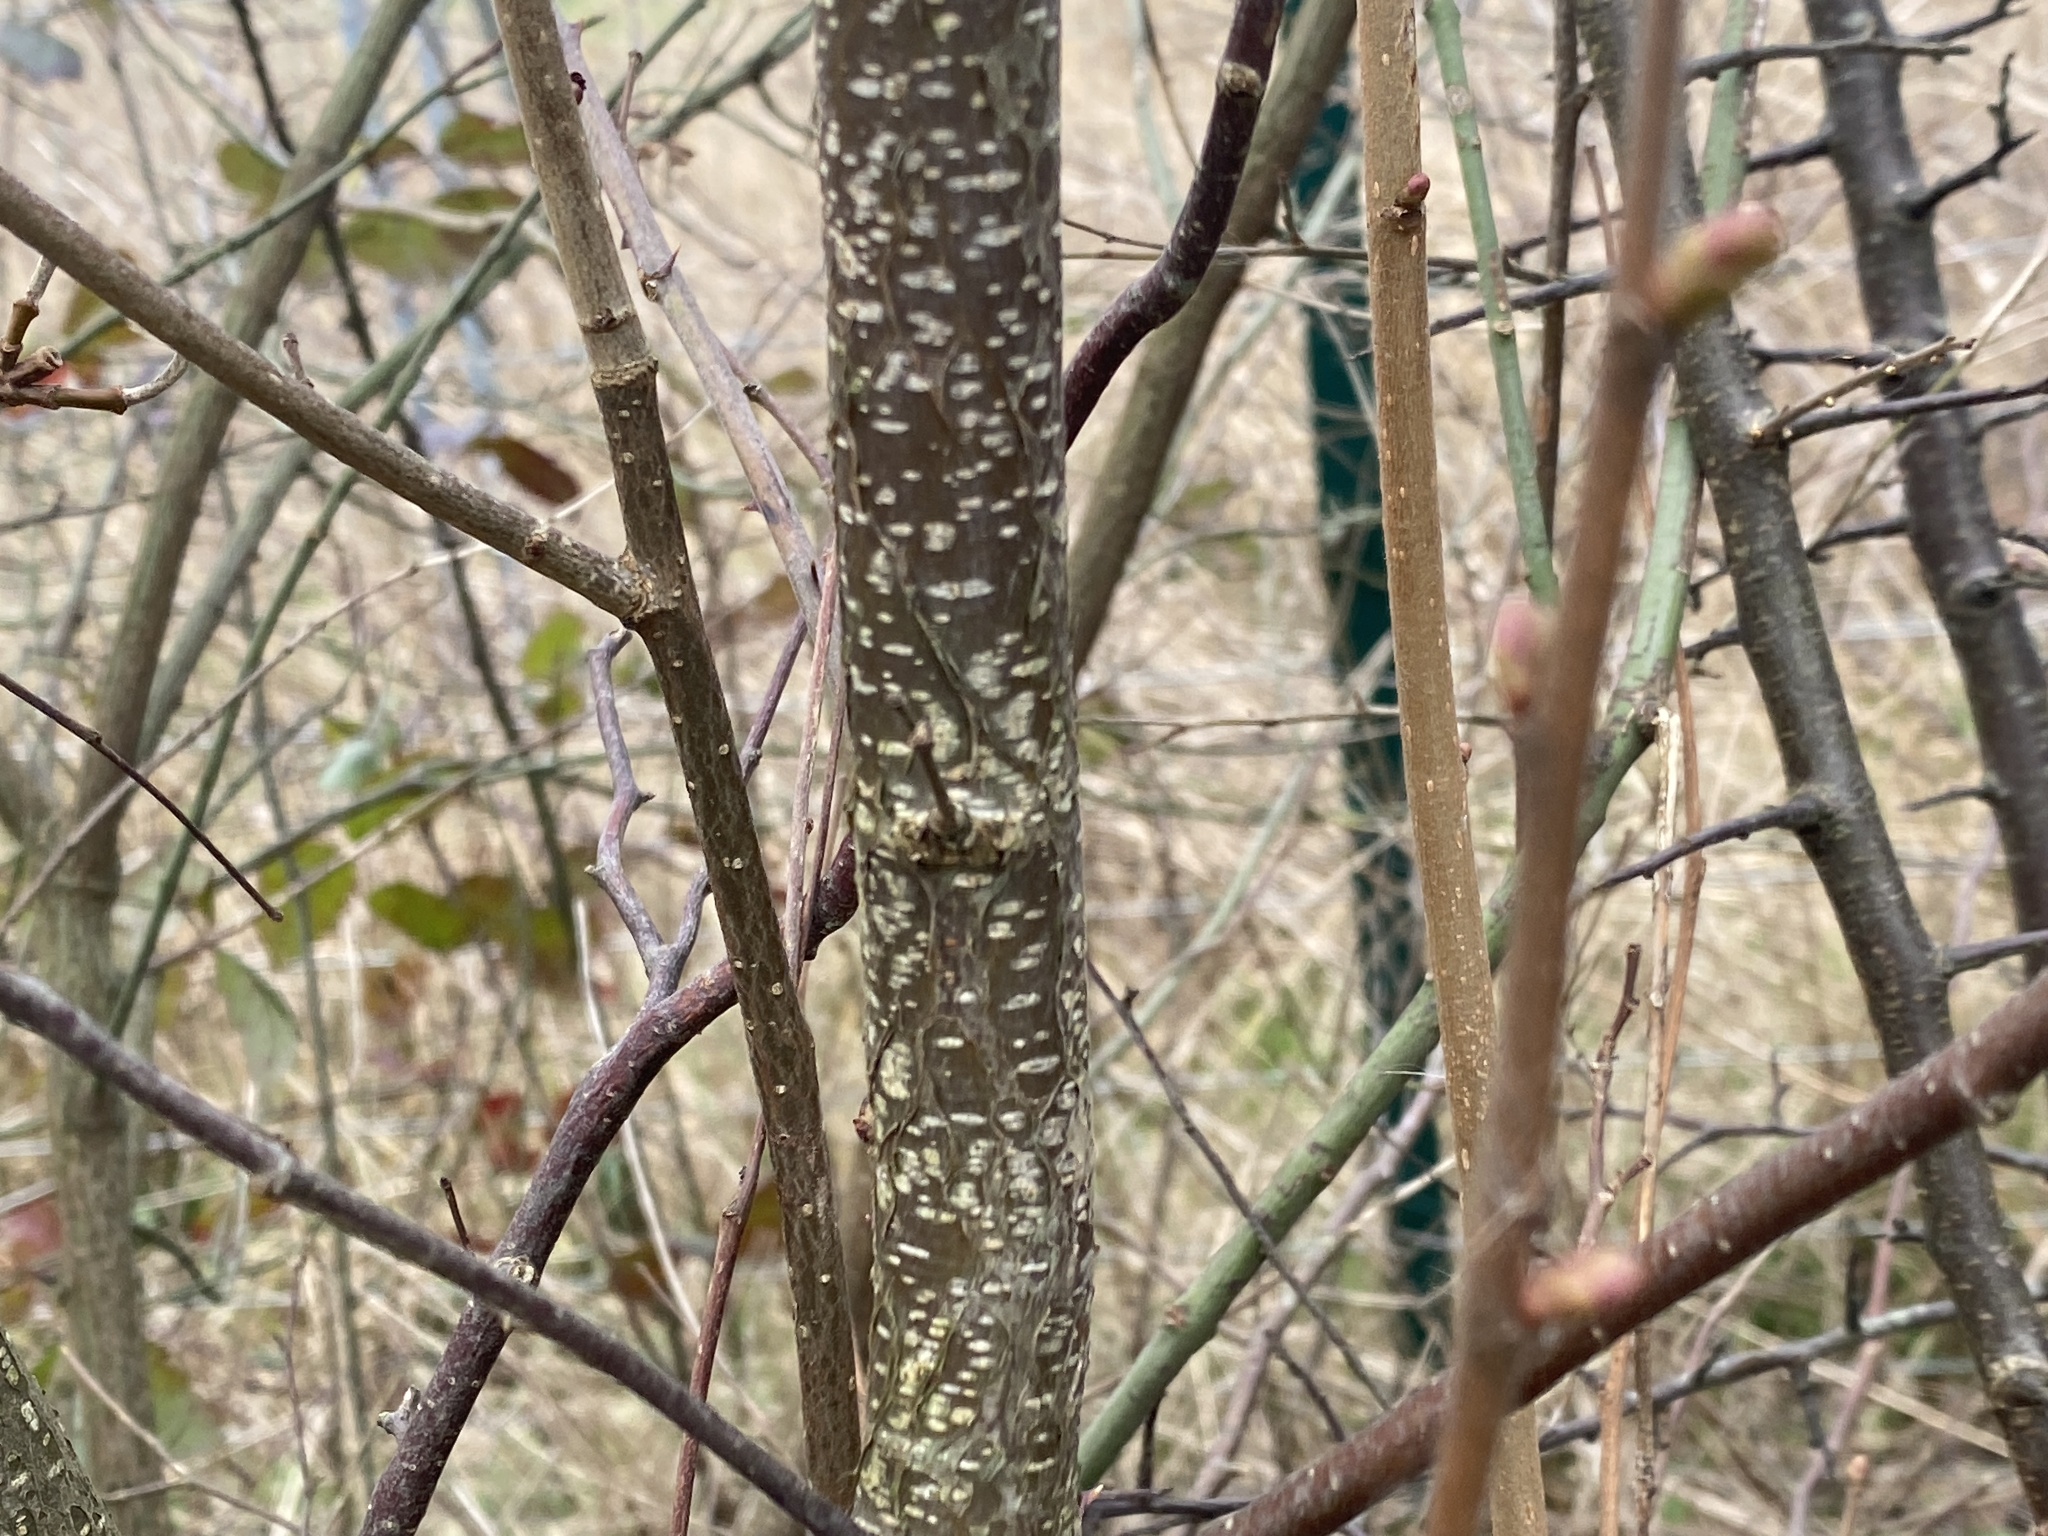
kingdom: Plantae
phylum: Tracheophyta
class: Magnoliopsida
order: Fagales
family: Betulaceae
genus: Corylus
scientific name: Corylus avellana
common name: European hazel
